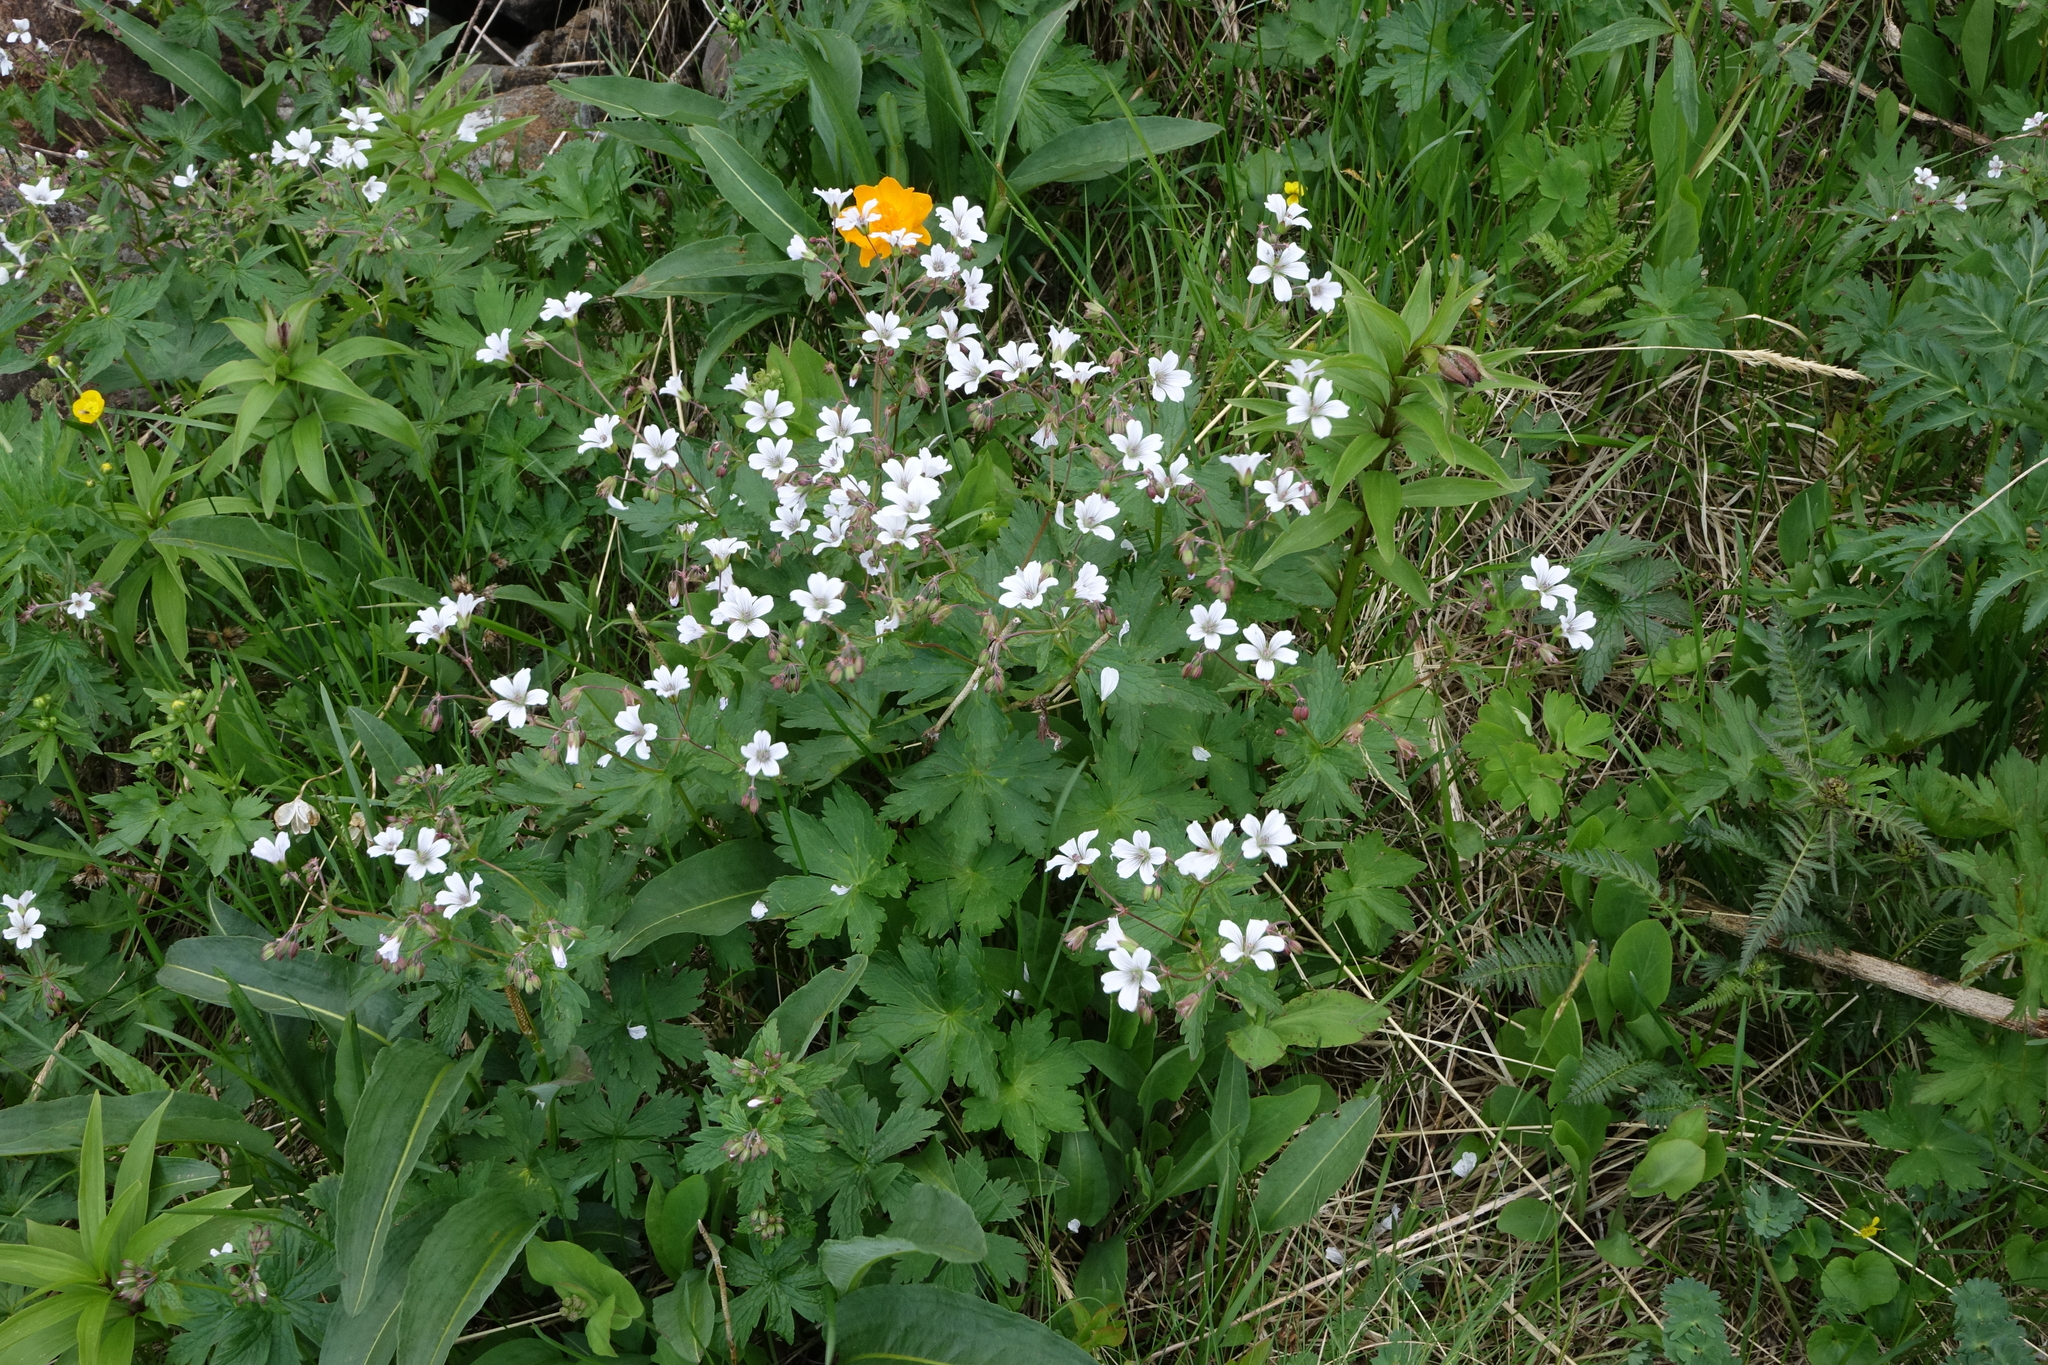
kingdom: Plantae
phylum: Tracheophyta
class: Magnoliopsida
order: Geraniales
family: Geraniaceae
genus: Geranium
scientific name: Geranium sylvaticum
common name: Wood crane's-bill
